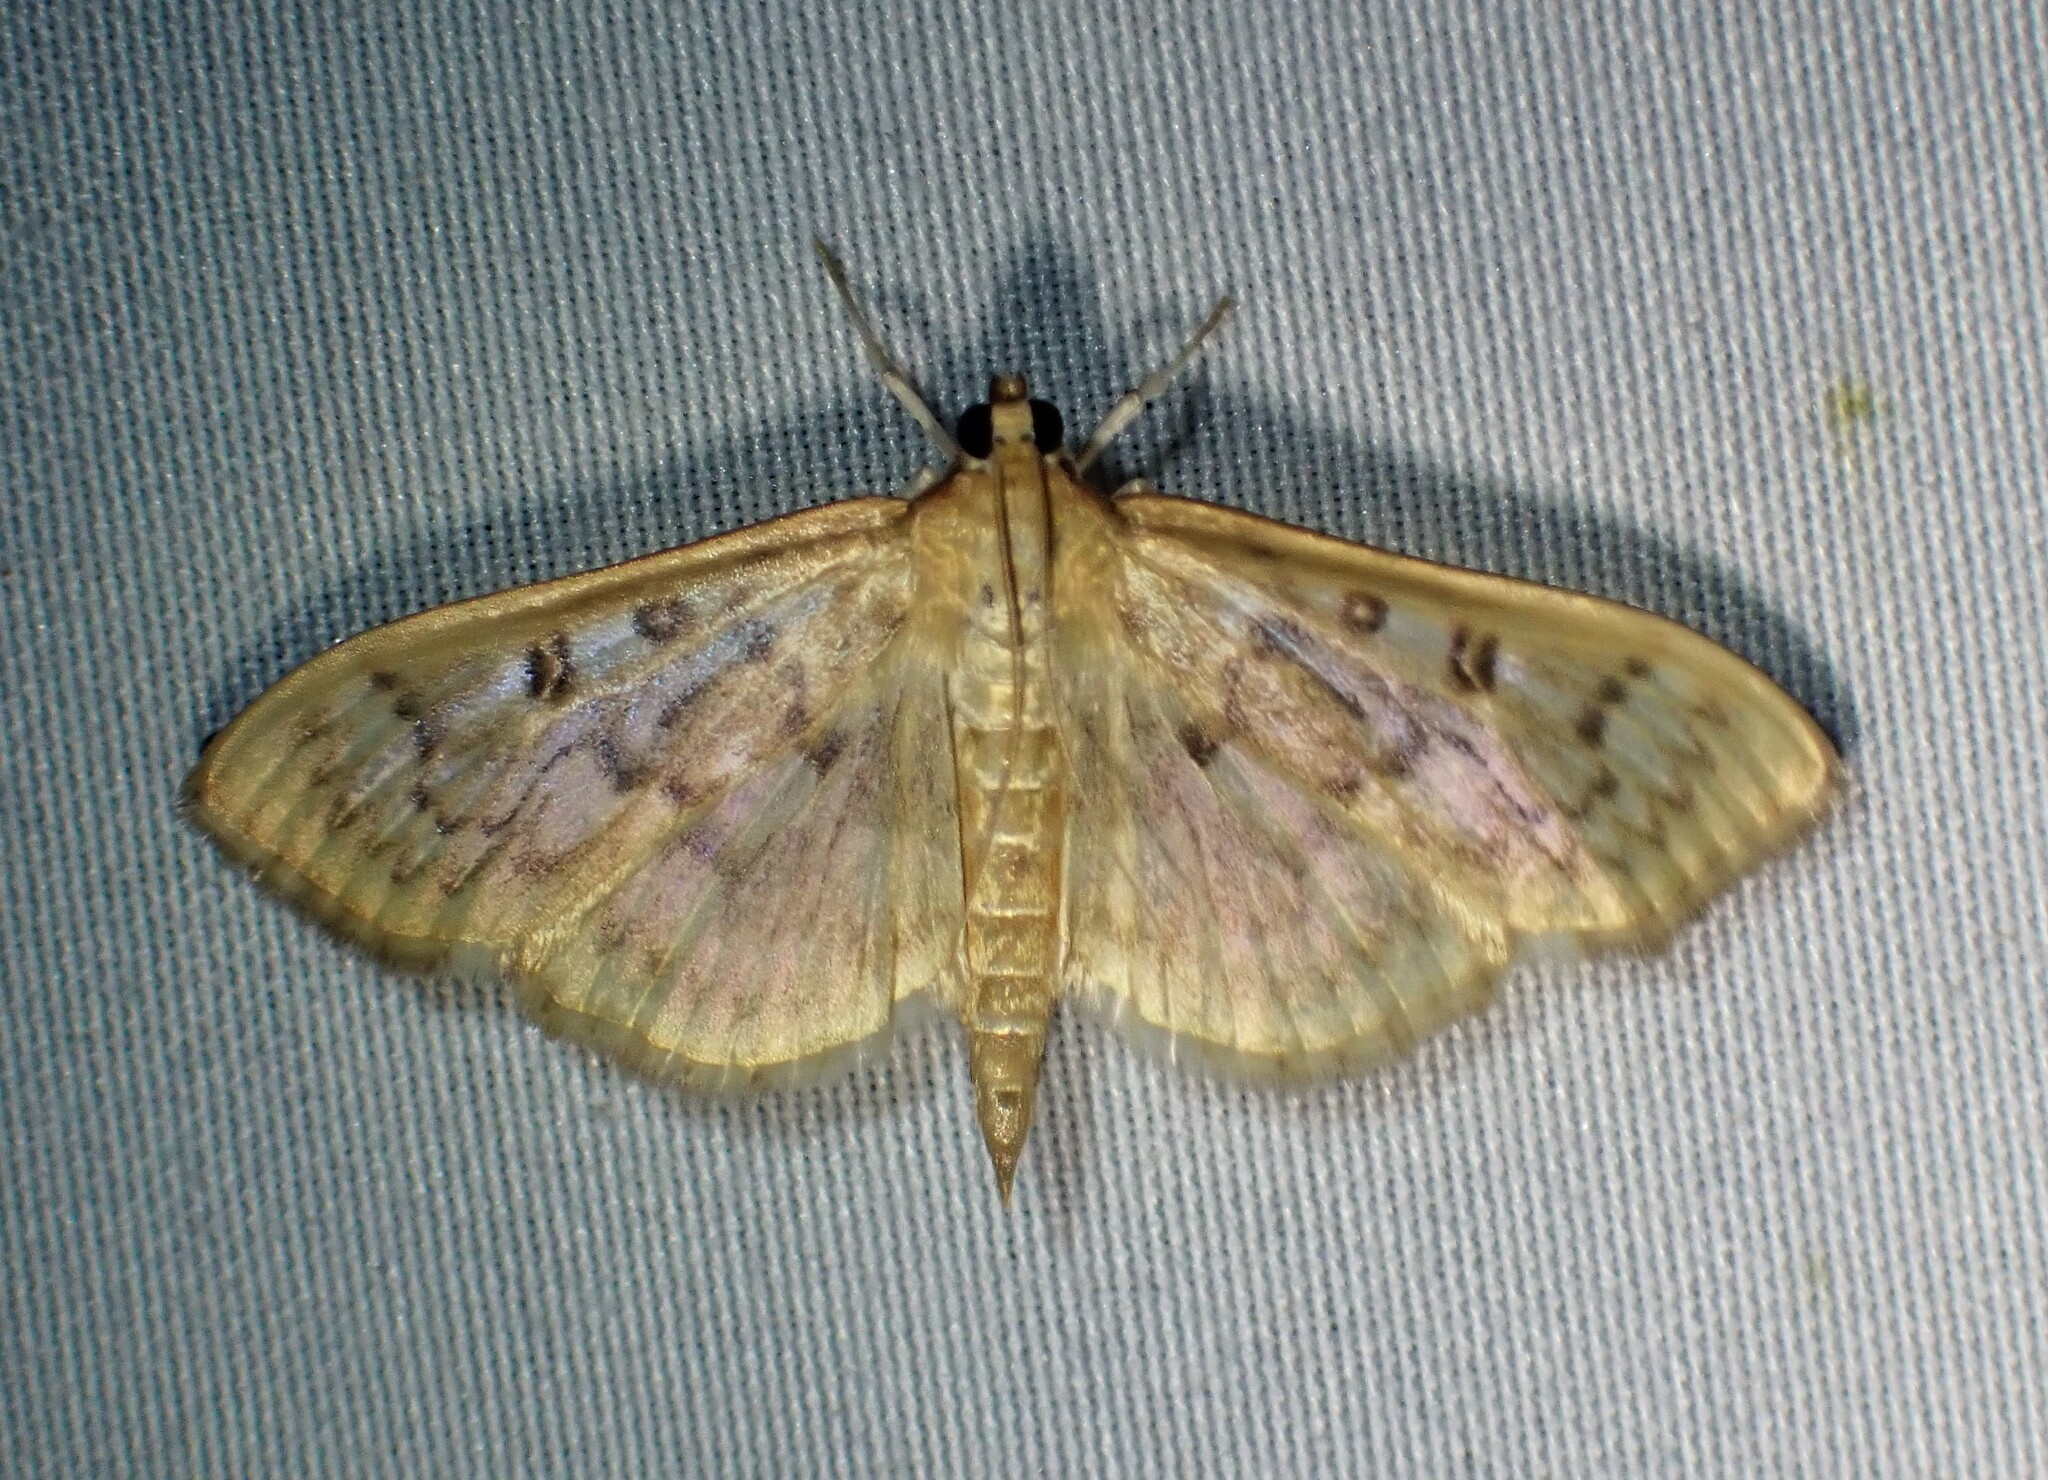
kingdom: Animalia
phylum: Arthropoda
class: Insecta
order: Lepidoptera
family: Crambidae
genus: Herpetogramma
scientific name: Herpetogramma aquilonalis
